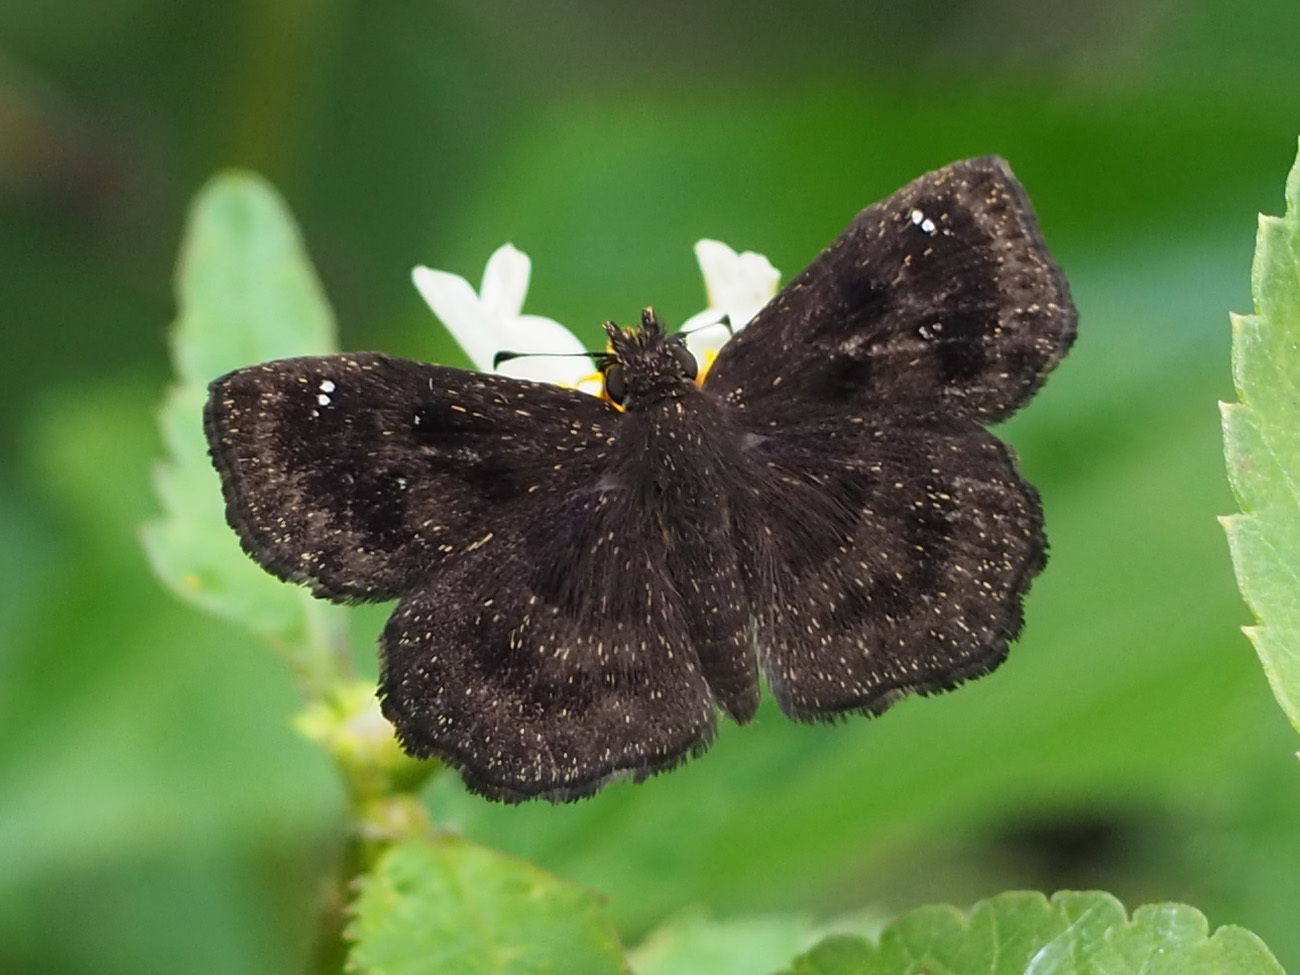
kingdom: Animalia
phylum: Arthropoda
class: Insecta
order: Lepidoptera
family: Hesperiidae
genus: Staphylus
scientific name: Staphylus mazans
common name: Mazans scallopwing
